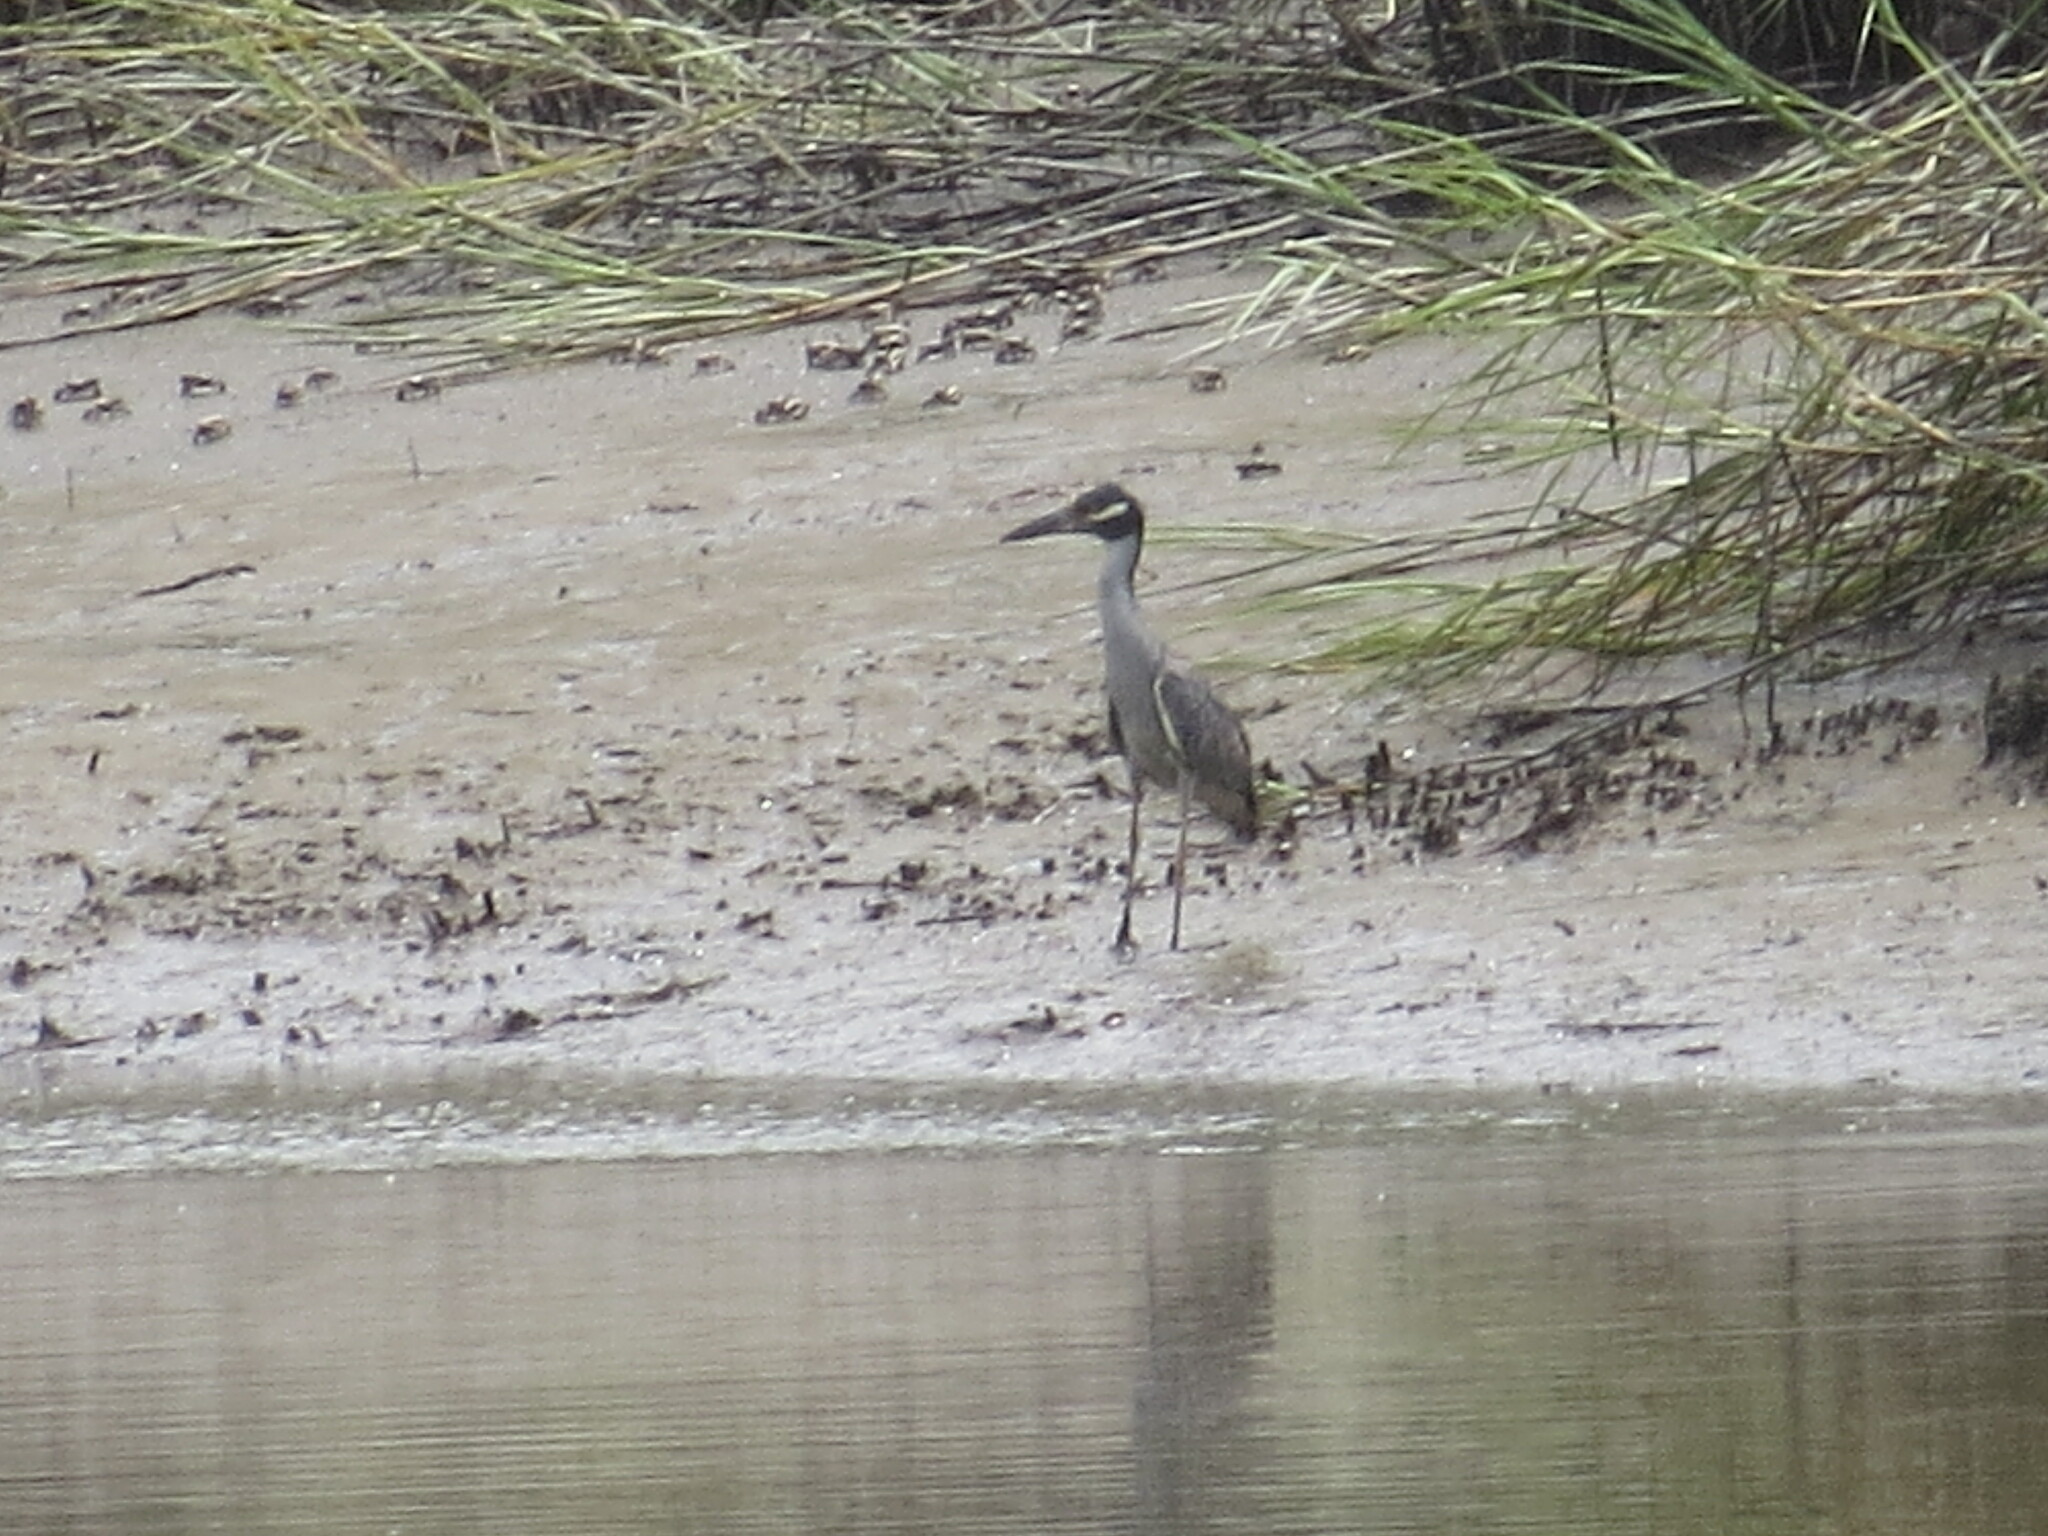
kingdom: Animalia
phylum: Chordata
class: Aves
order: Pelecaniformes
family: Ardeidae
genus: Nyctanassa
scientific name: Nyctanassa violacea
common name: Yellow-crowned night heron
